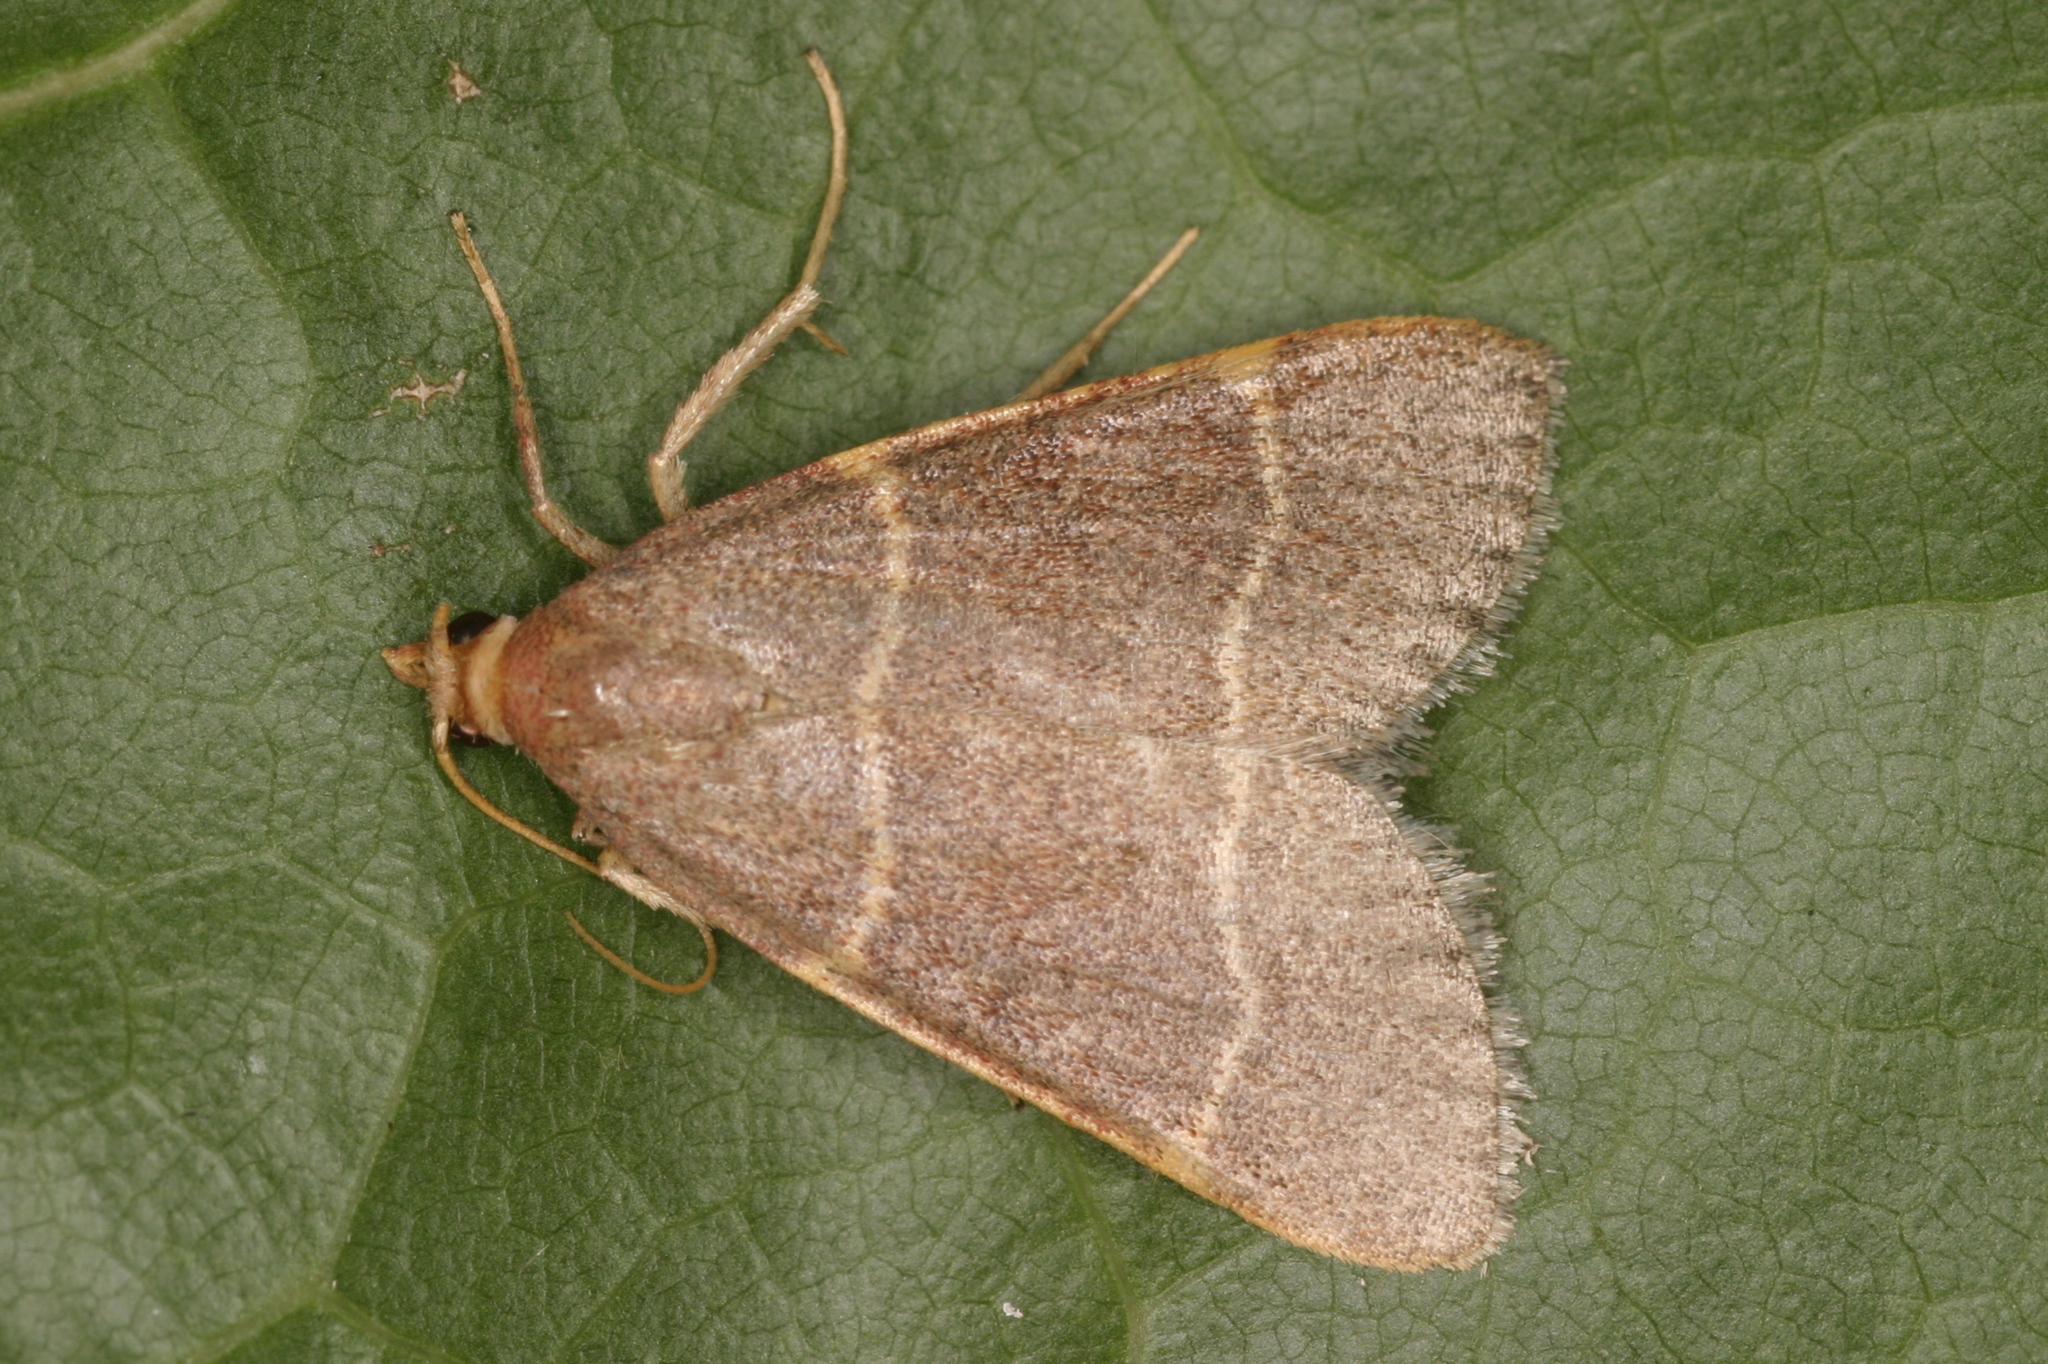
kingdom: Animalia
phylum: Arthropoda
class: Insecta
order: Lepidoptera
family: Pyralidae
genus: Hypsopygia
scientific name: Hypsopygia glaucinalis
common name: Double-striped tabby
